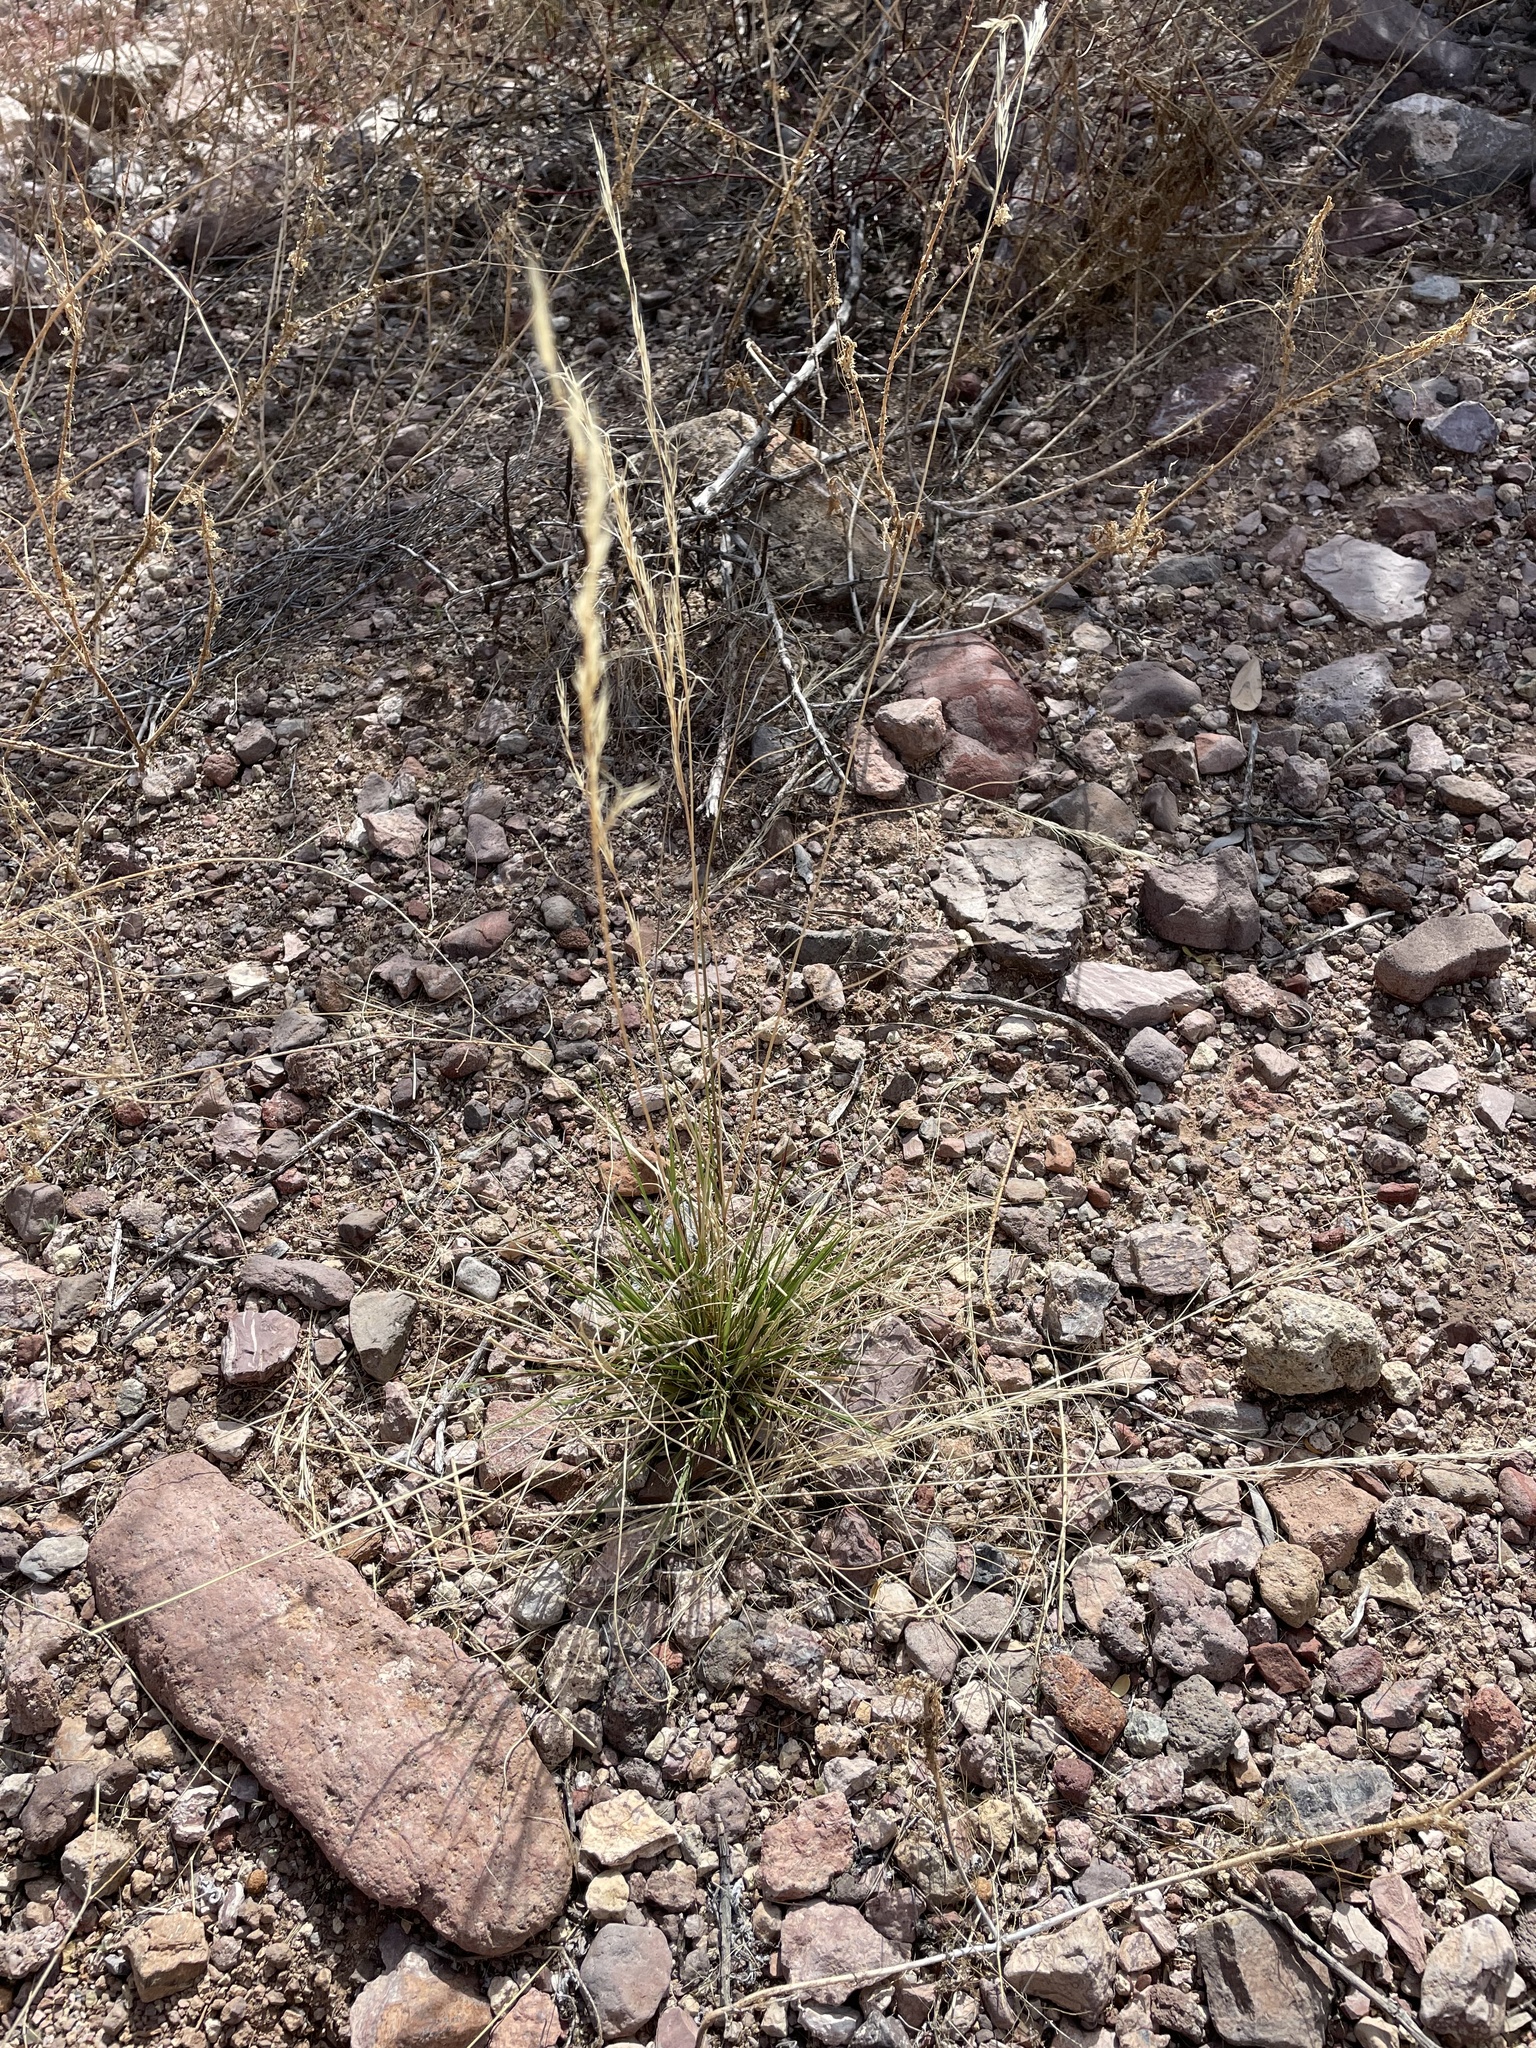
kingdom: Plantae
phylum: Tracheophyta
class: Liliopsida
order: Poales
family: Poaceae
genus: Aristida
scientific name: Aristida adscensionis
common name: Sixweeks threeawn
